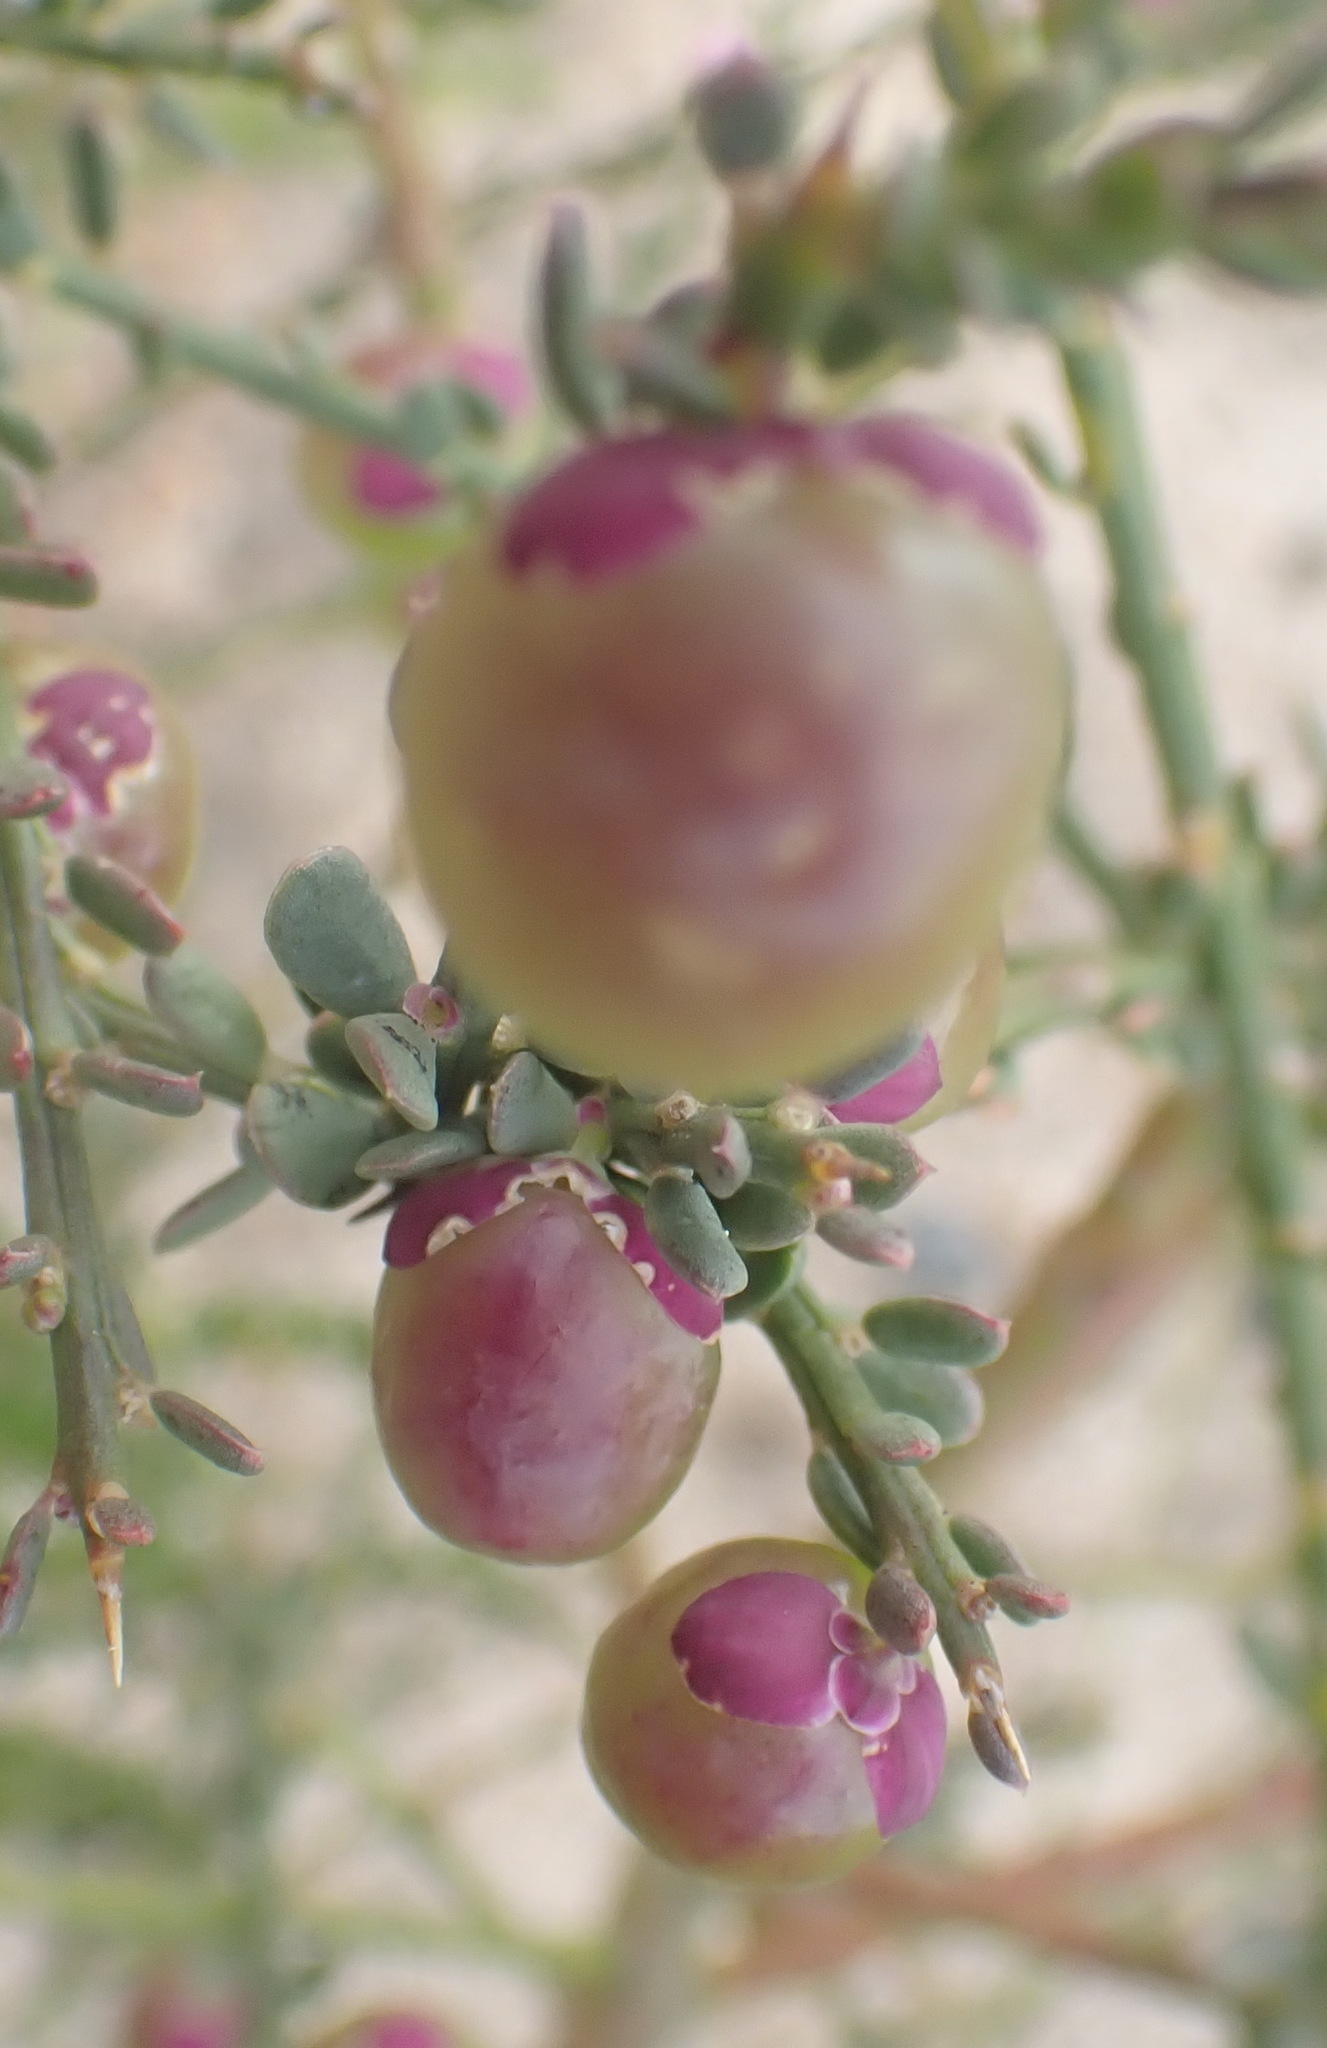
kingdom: Plantae
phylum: Tracheophyta
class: Magnoliopsida
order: Fabales
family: Polygalaceae
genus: Muraltia
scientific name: Muraltia spinosa
